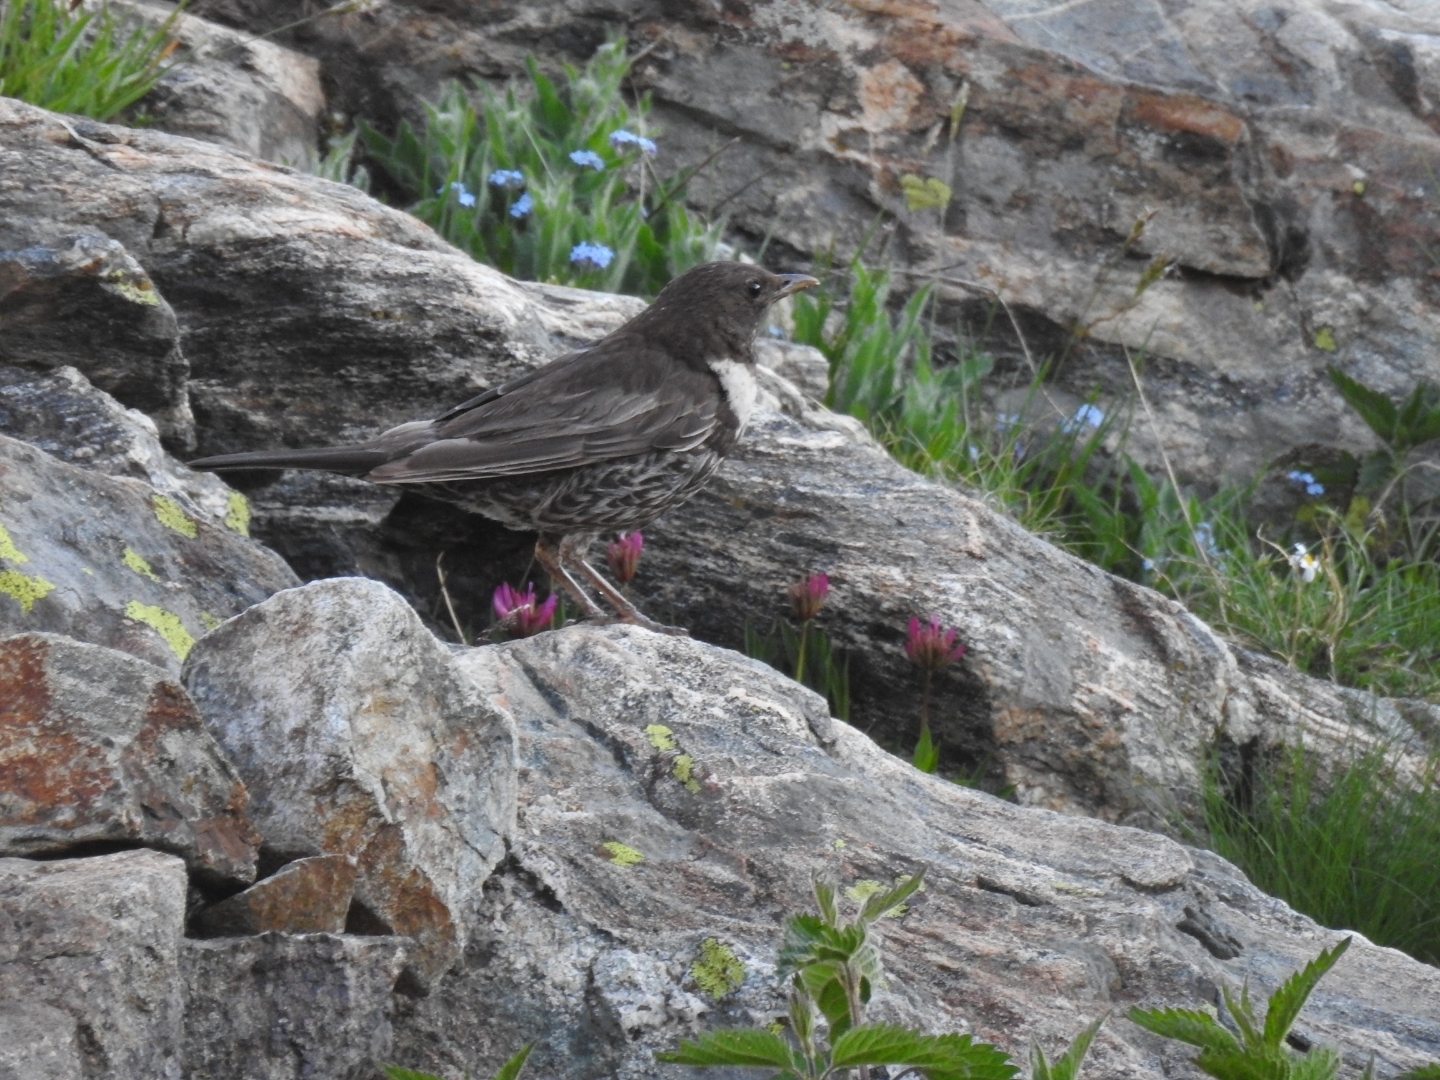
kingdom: Animalia
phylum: Chordata
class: Aves
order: Passeriformes
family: Turdidae
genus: Turdus
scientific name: Turdus torquatus
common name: Ring ouzel
